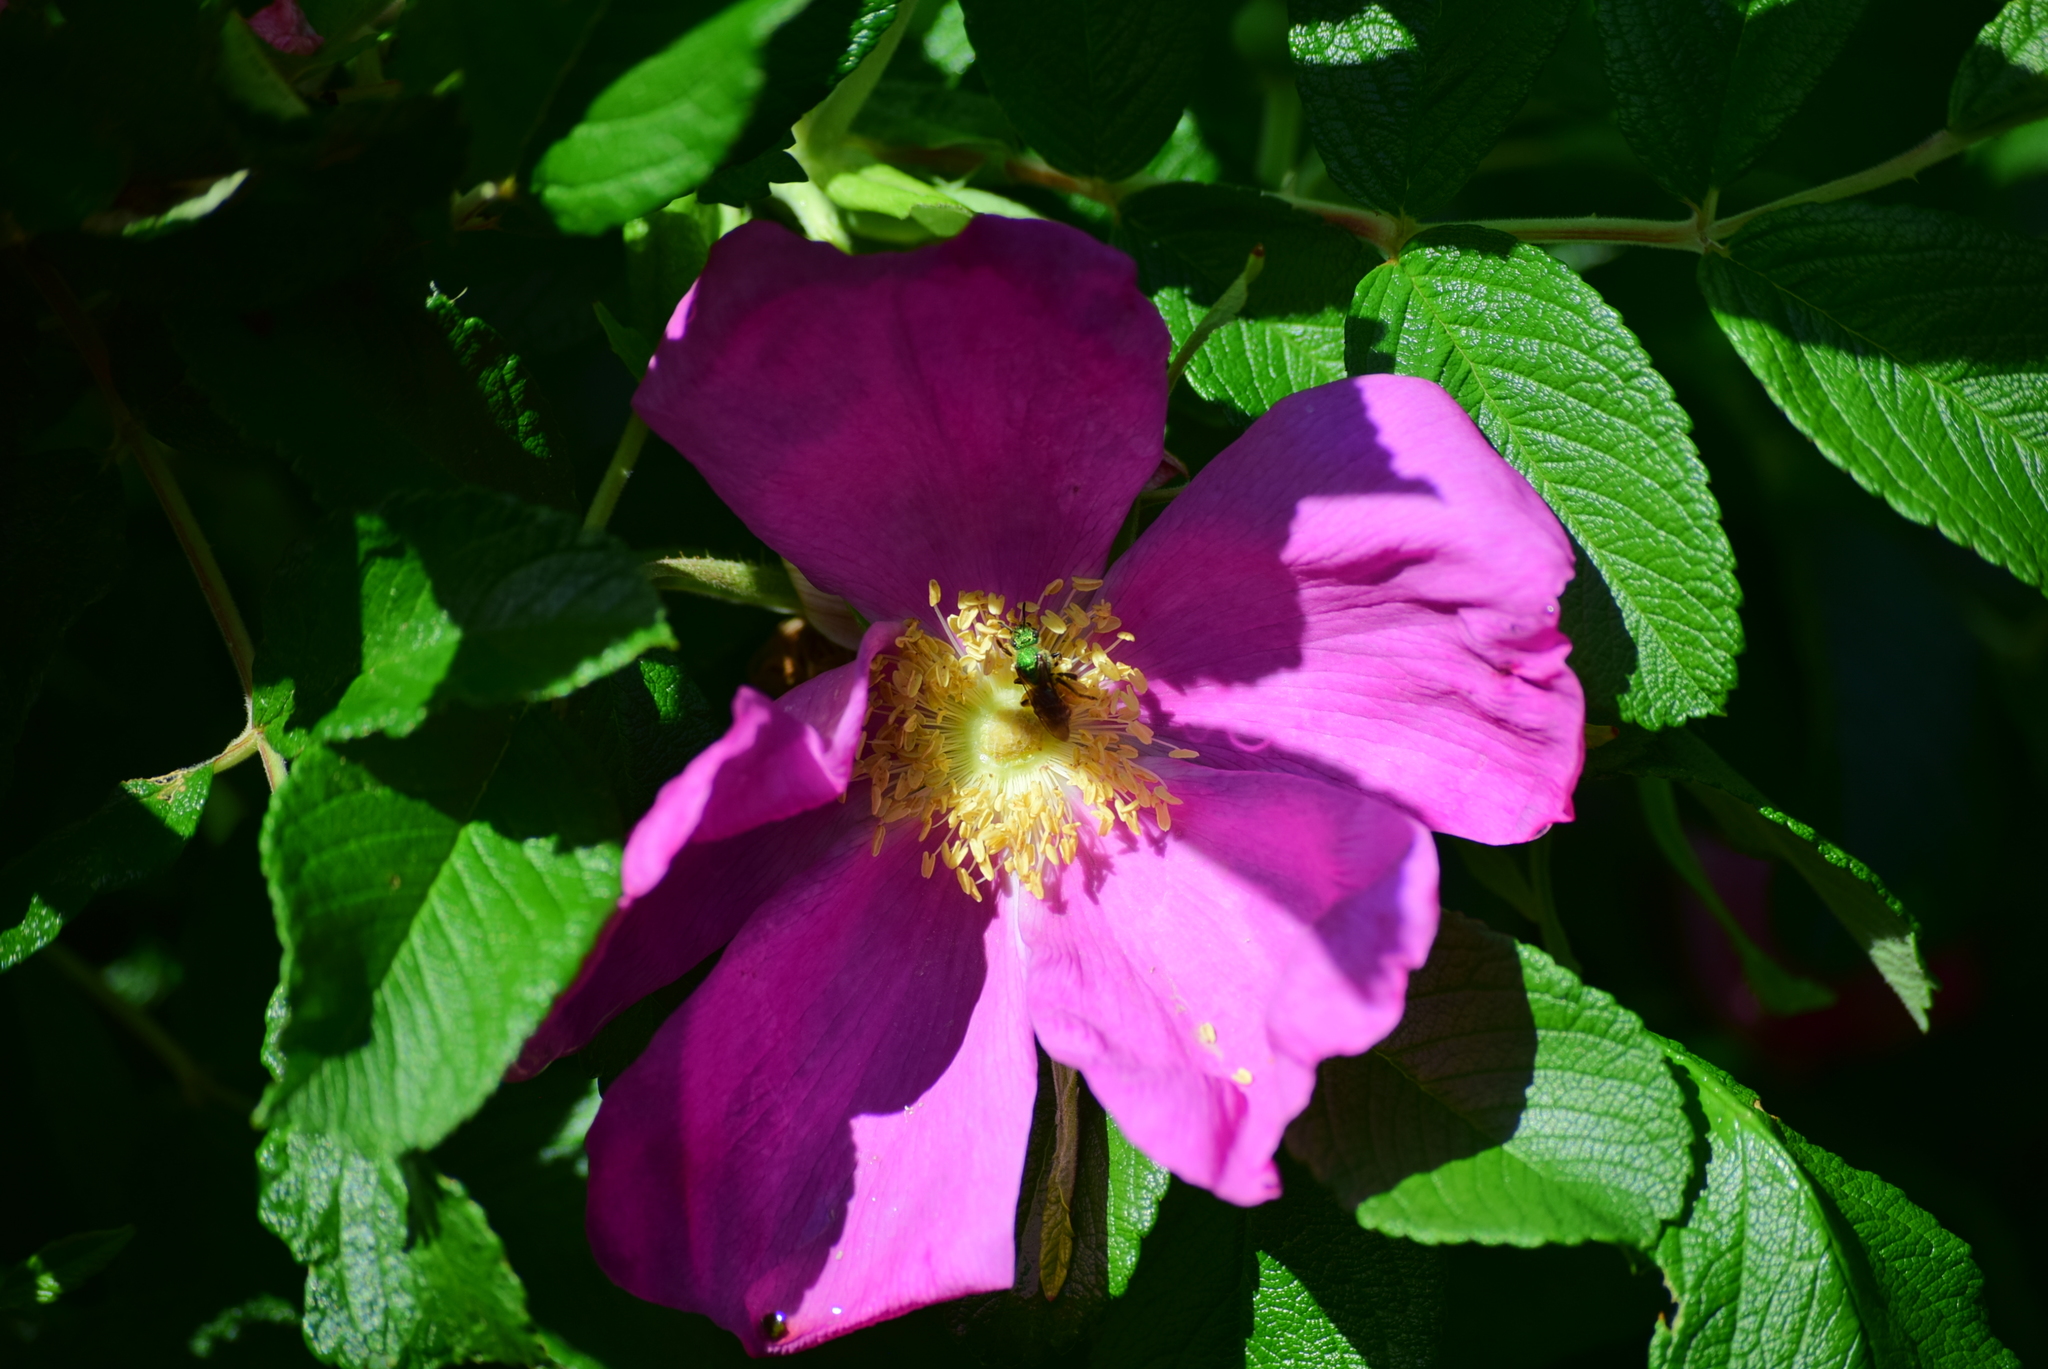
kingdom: Animalia
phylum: Arthropoda
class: Insecta
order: Hymenoptera
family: Halictidae
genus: Agapostemon
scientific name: Agapostemon virescens
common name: Bicolored striped sweat bee
